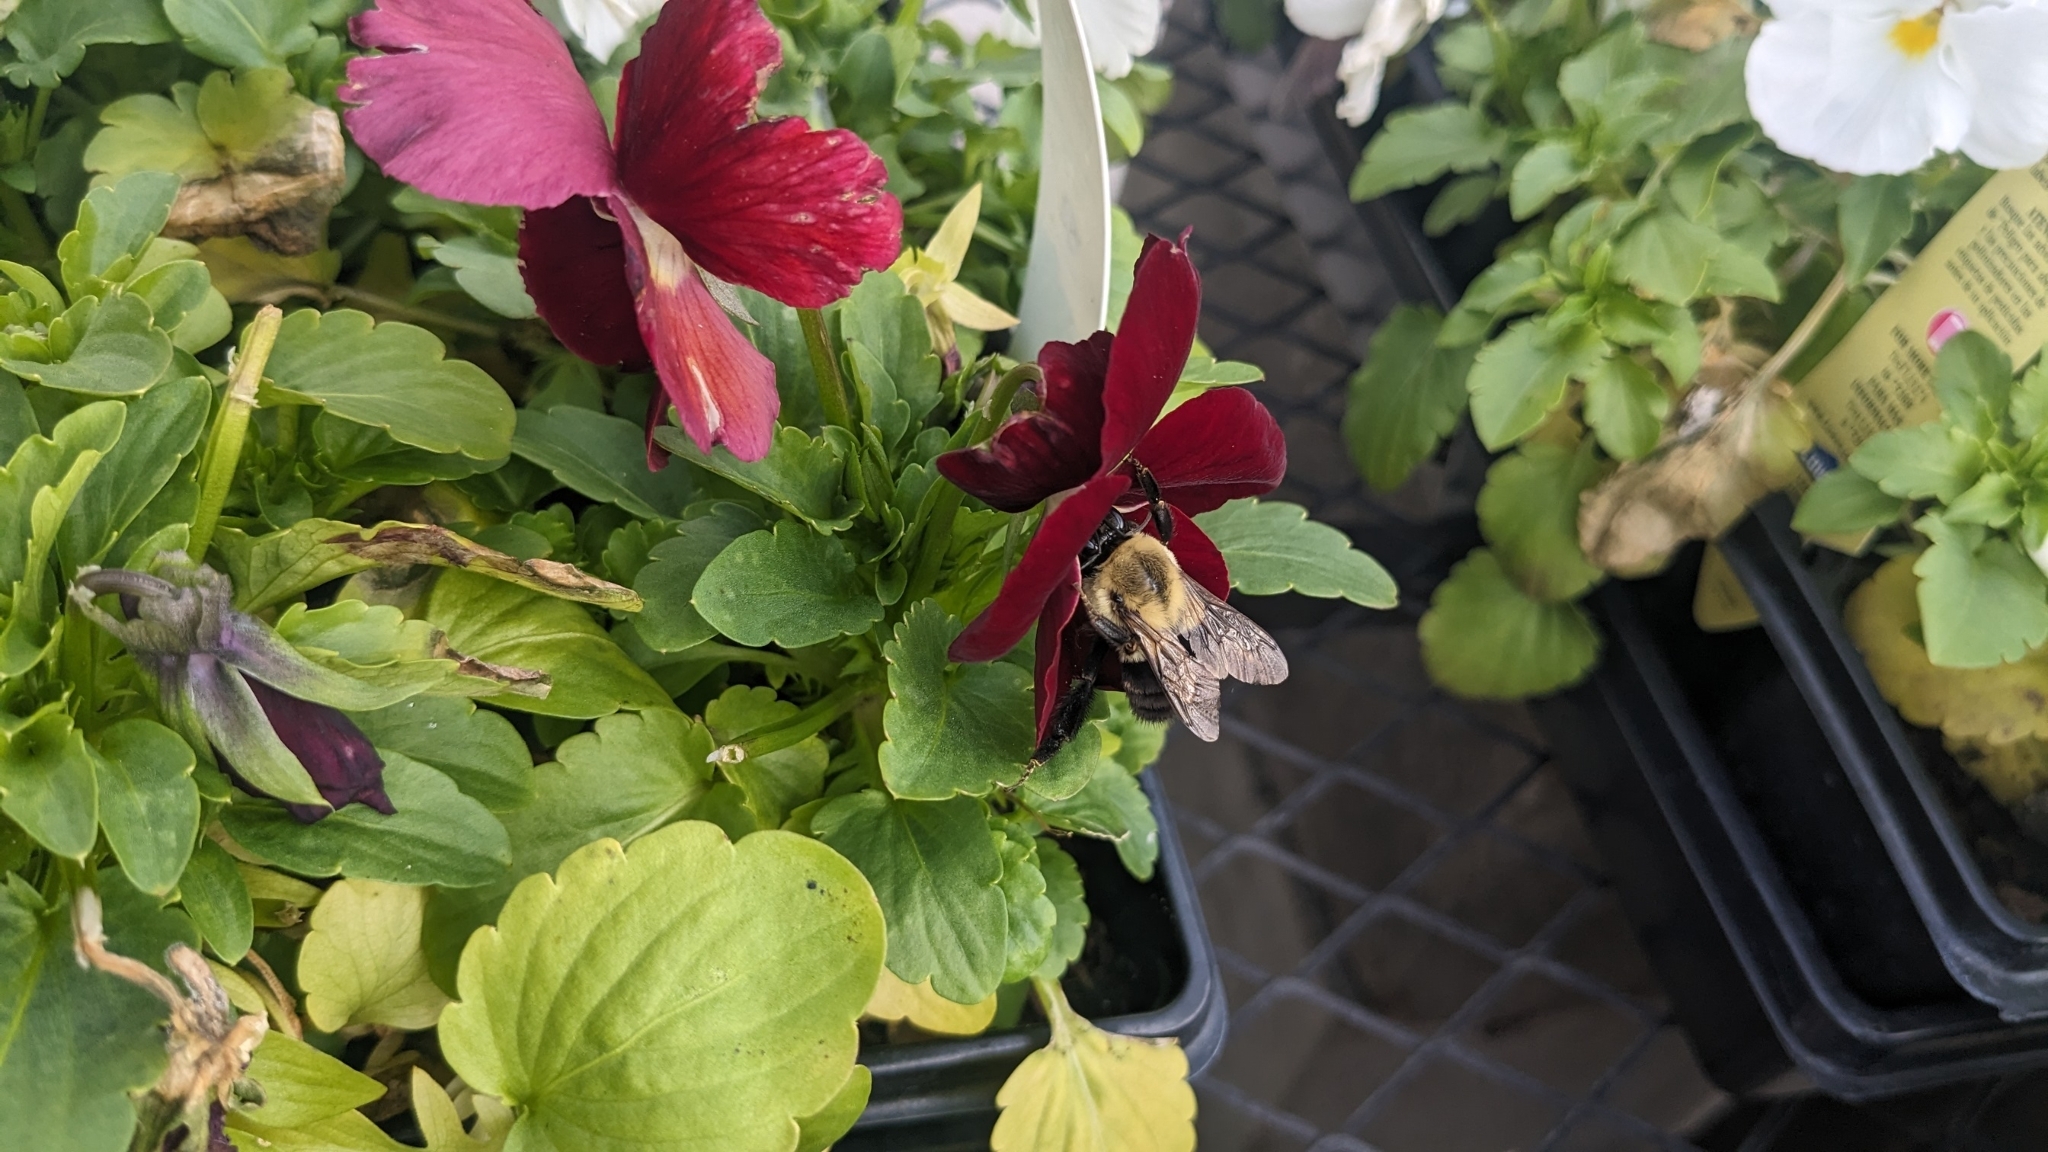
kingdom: Animalia
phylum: Arthropoda
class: Insecta
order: Hymenoptera
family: Apidae
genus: Bombus
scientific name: Bombus impatiens
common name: Common eastern bumble bee
